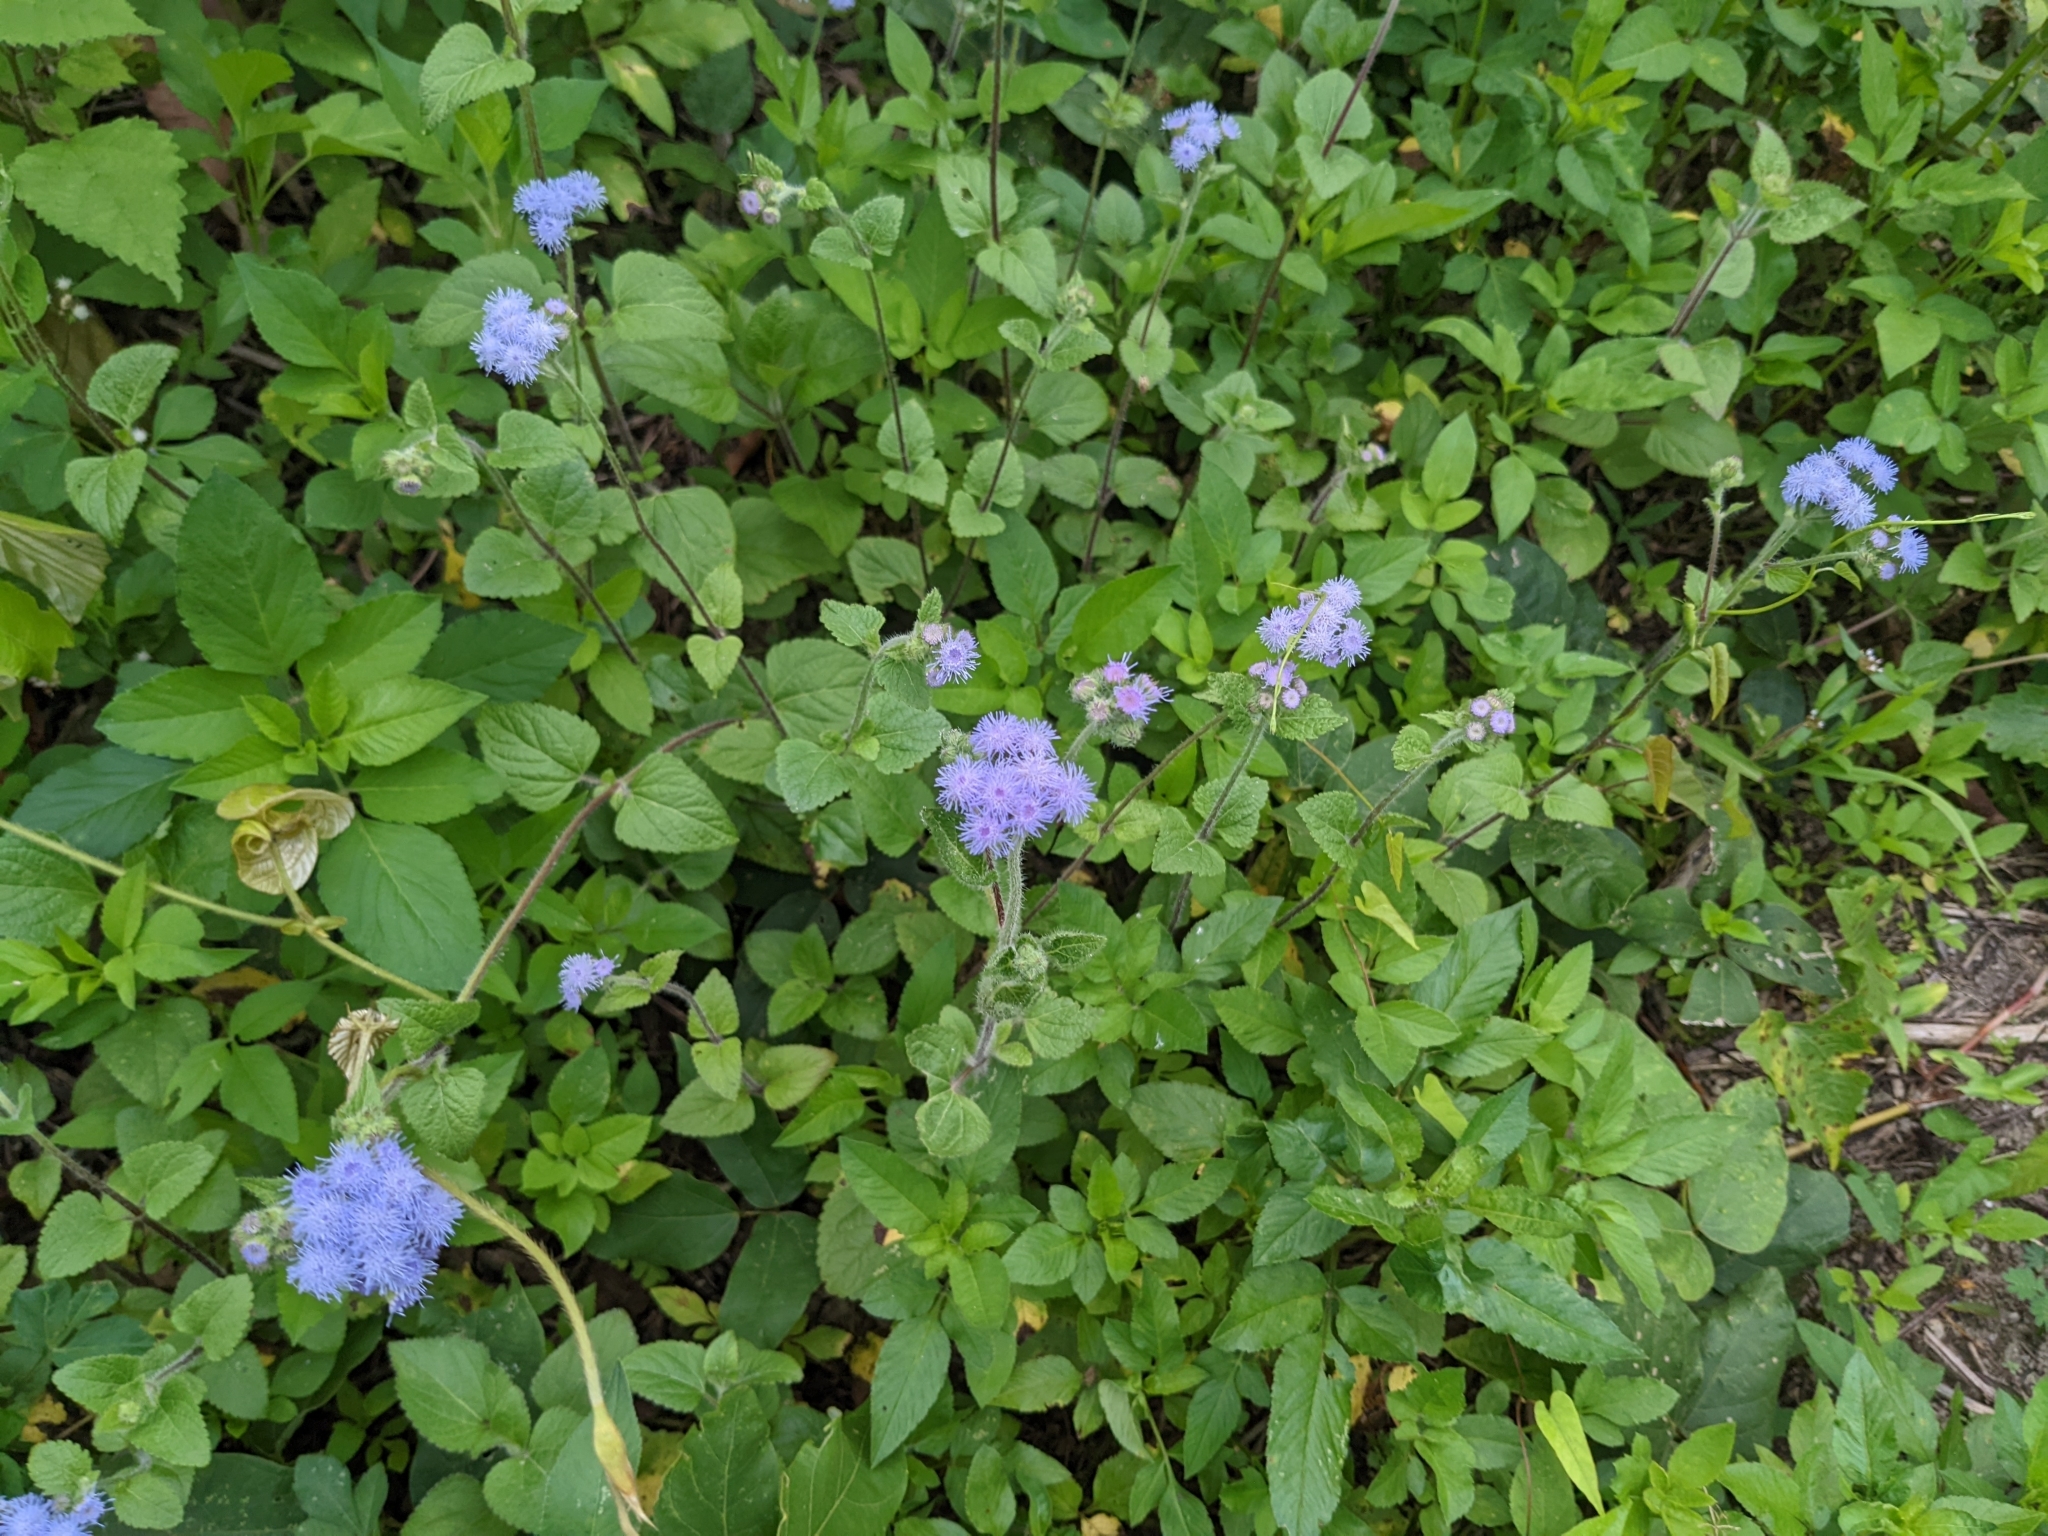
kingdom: Plantae
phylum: Tracheophyta
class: Magnoliopsida
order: Asterales
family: Asteraceae
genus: Ageratum
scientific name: Ageratum houstonianum
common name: Bluemink
